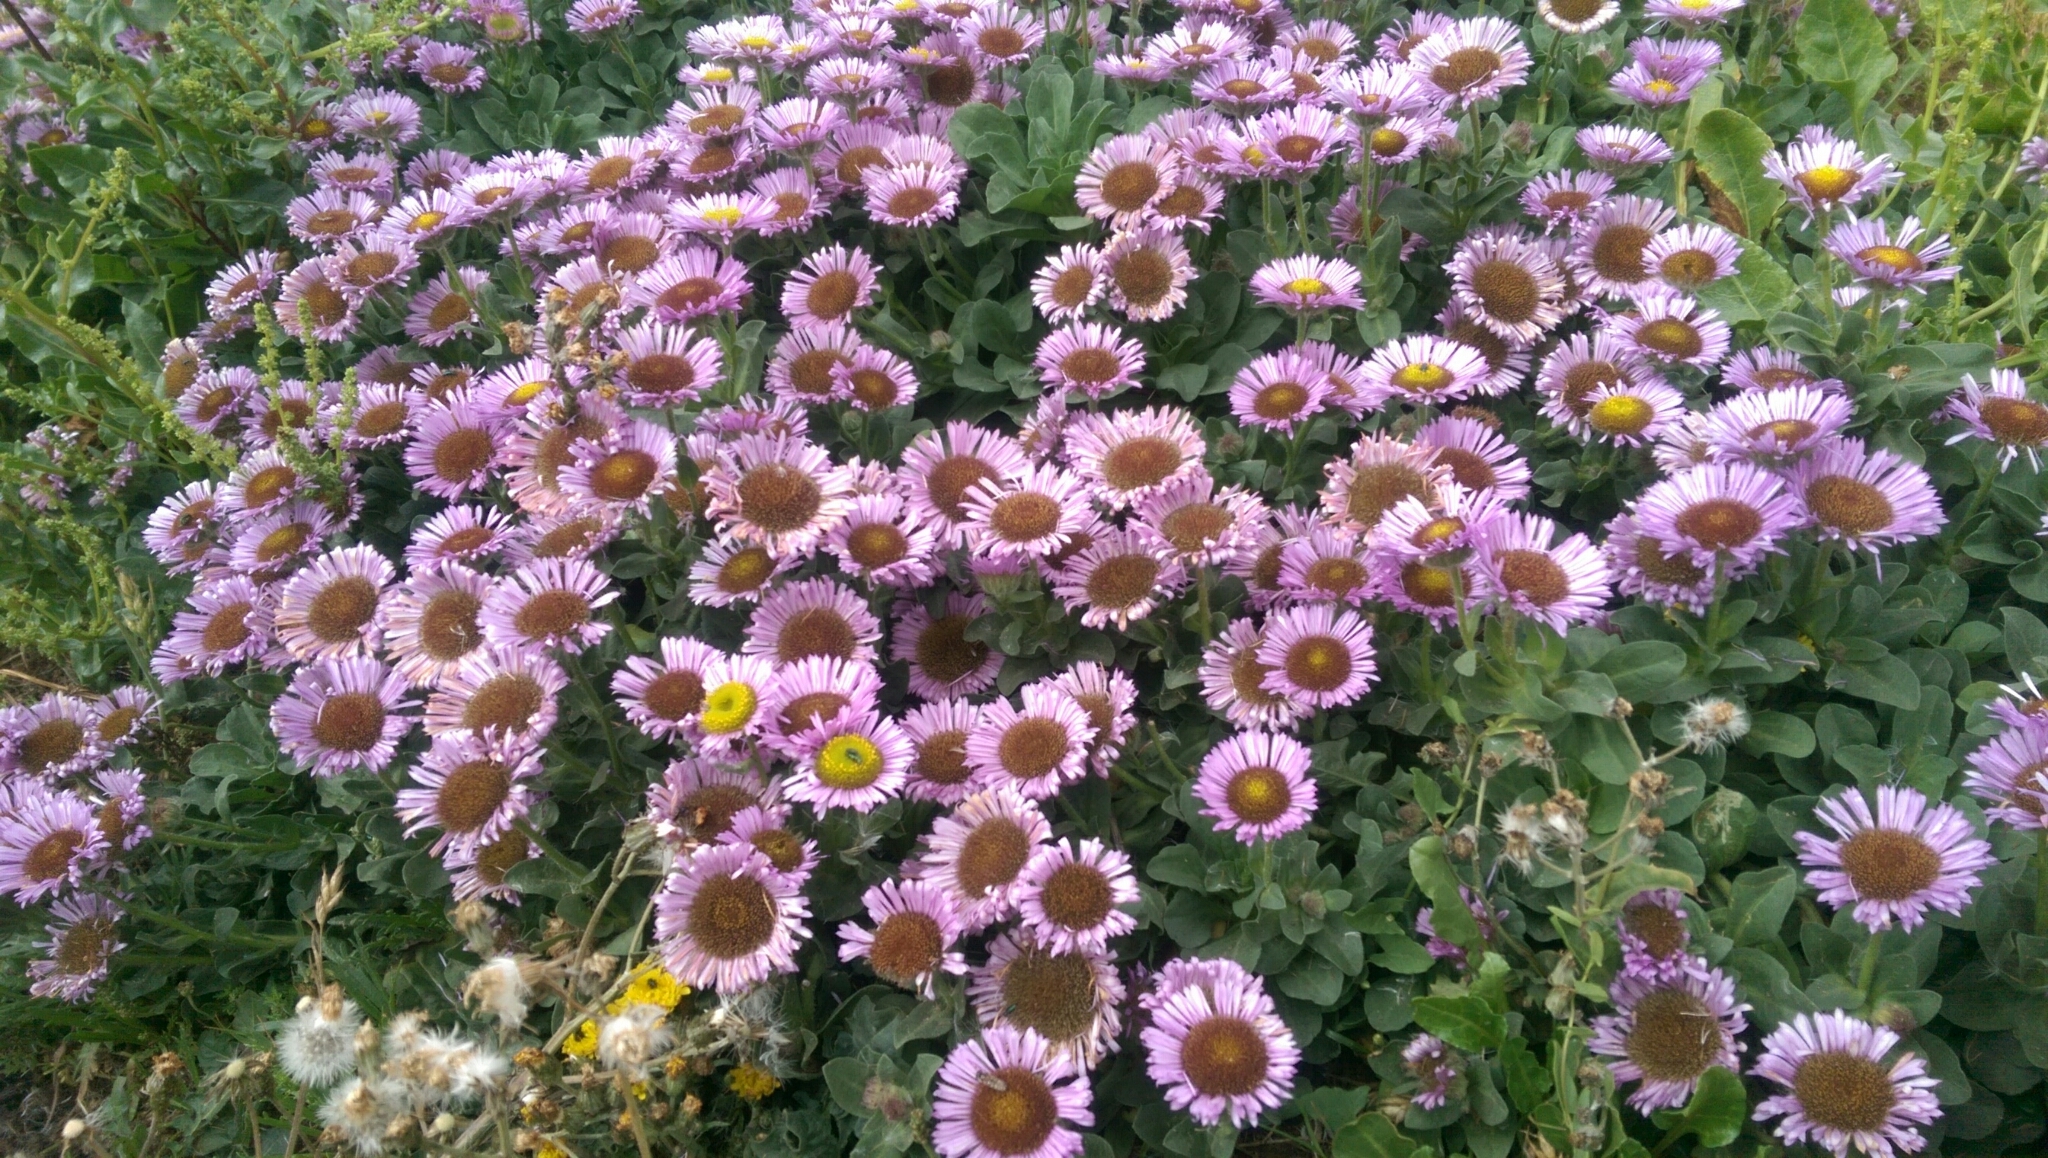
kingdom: Plantae
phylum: Tracheophyta
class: Magnoliopsida
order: Asterales
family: Asteraceae
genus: Erigeron
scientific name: Erigeron glaucus
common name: Seaside daisy
